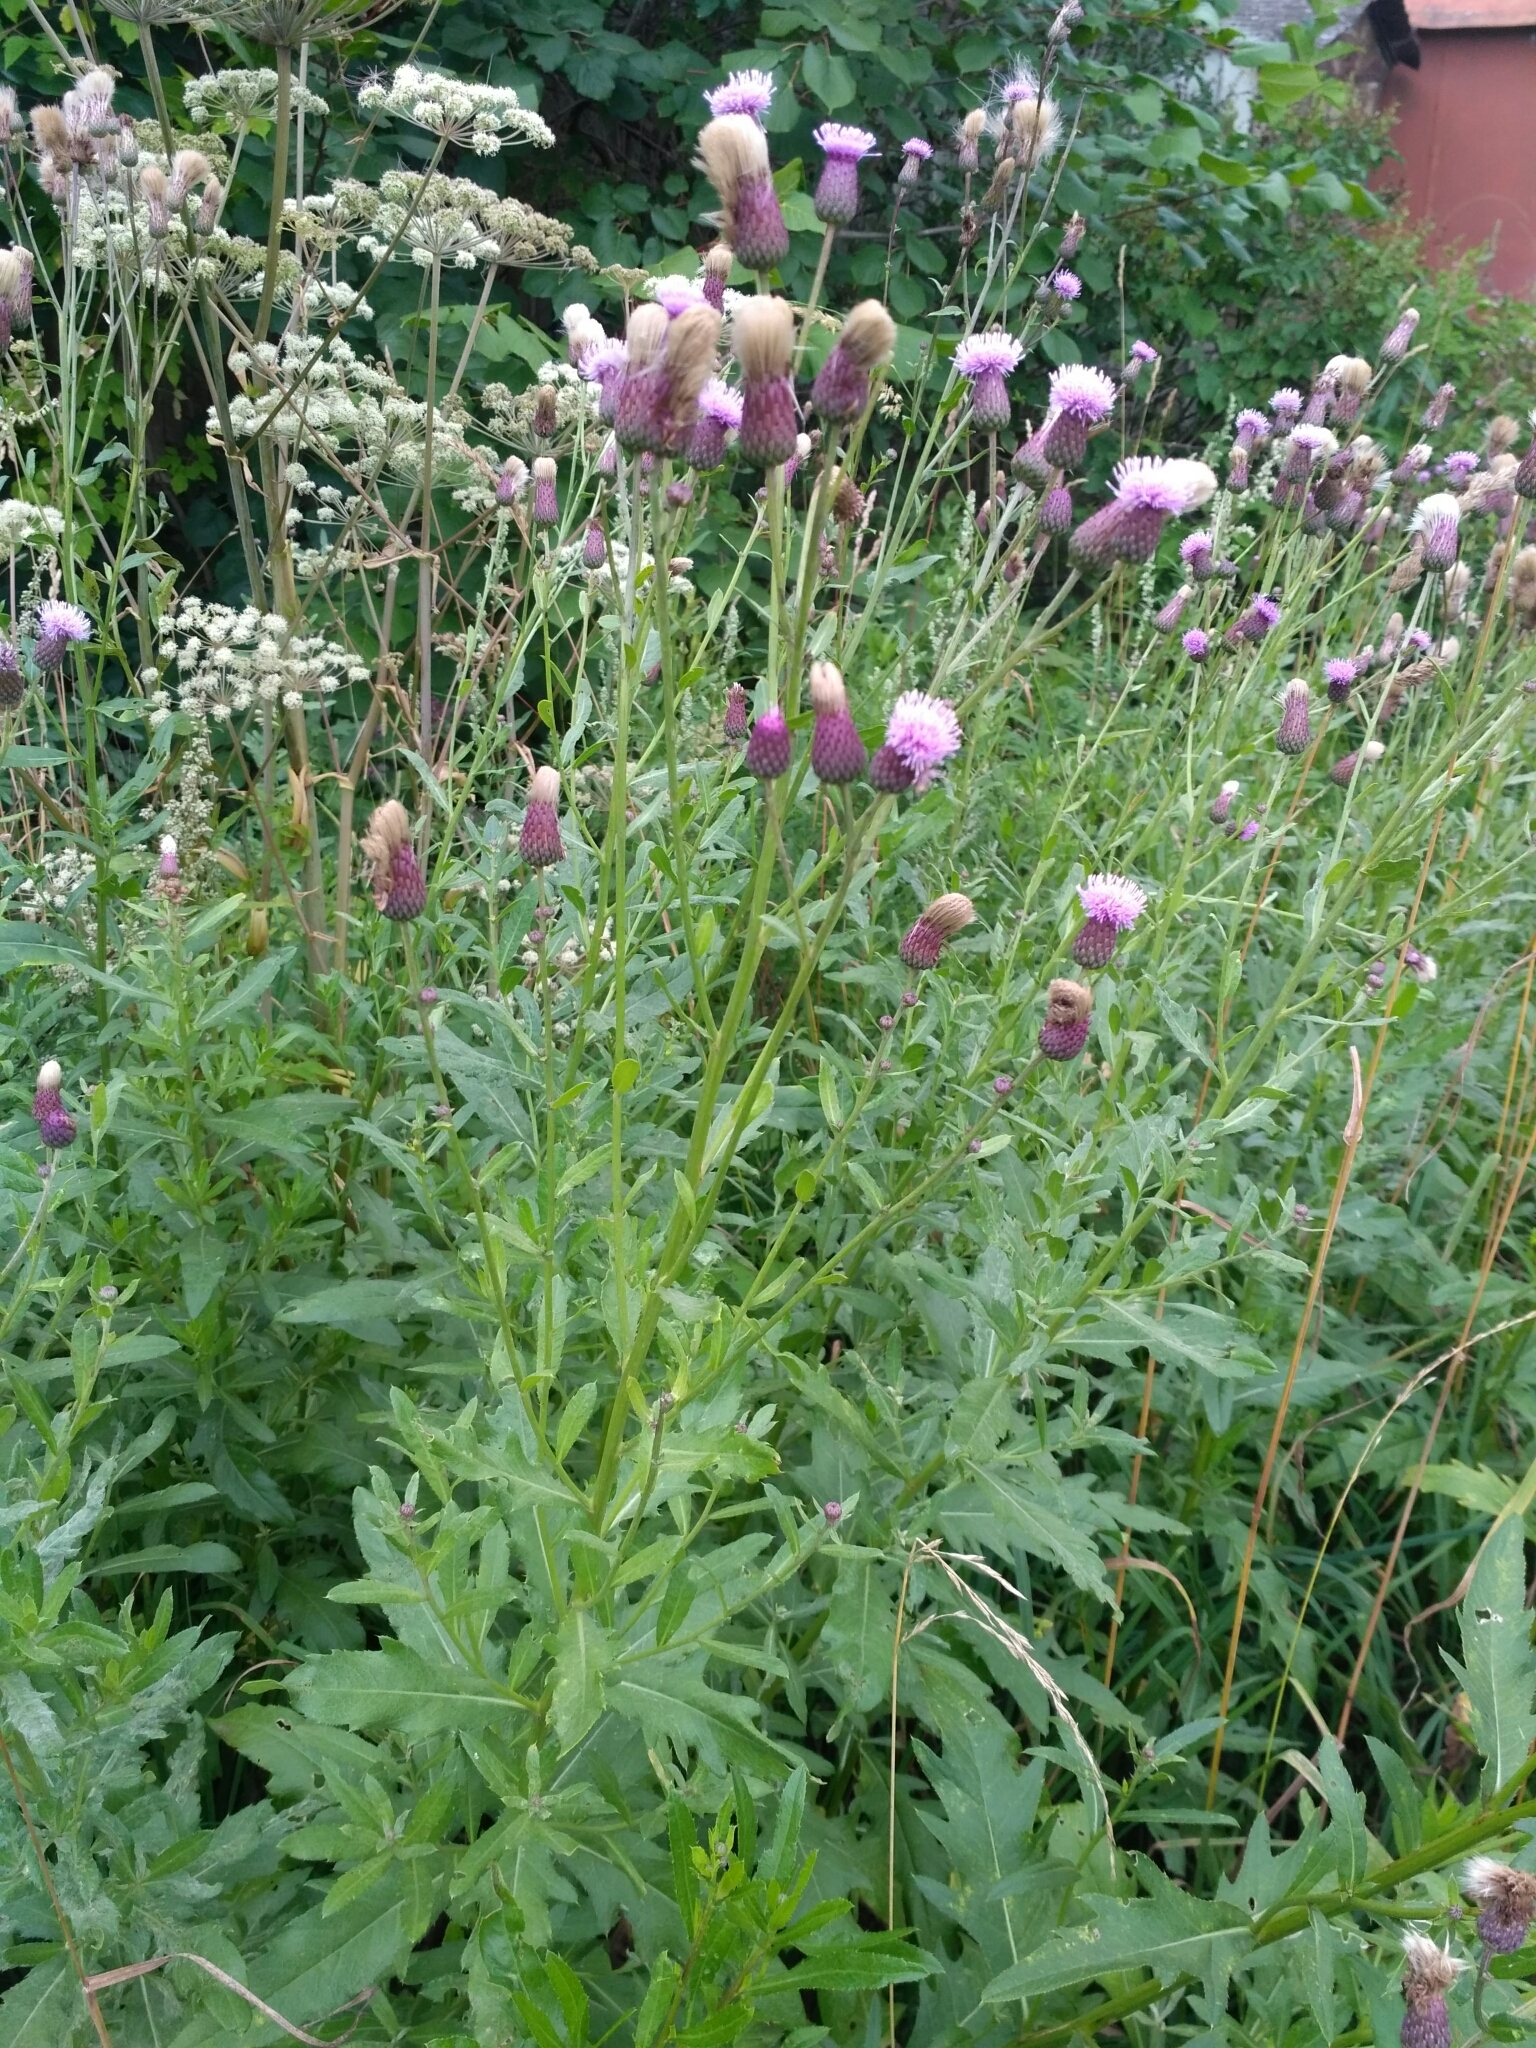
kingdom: Plantae
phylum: Tracheophyta
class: Magnoliopsida
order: Asterales
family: Asteraceae
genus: Cirsium
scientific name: Cirsium arvense
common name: Creeping thistle
